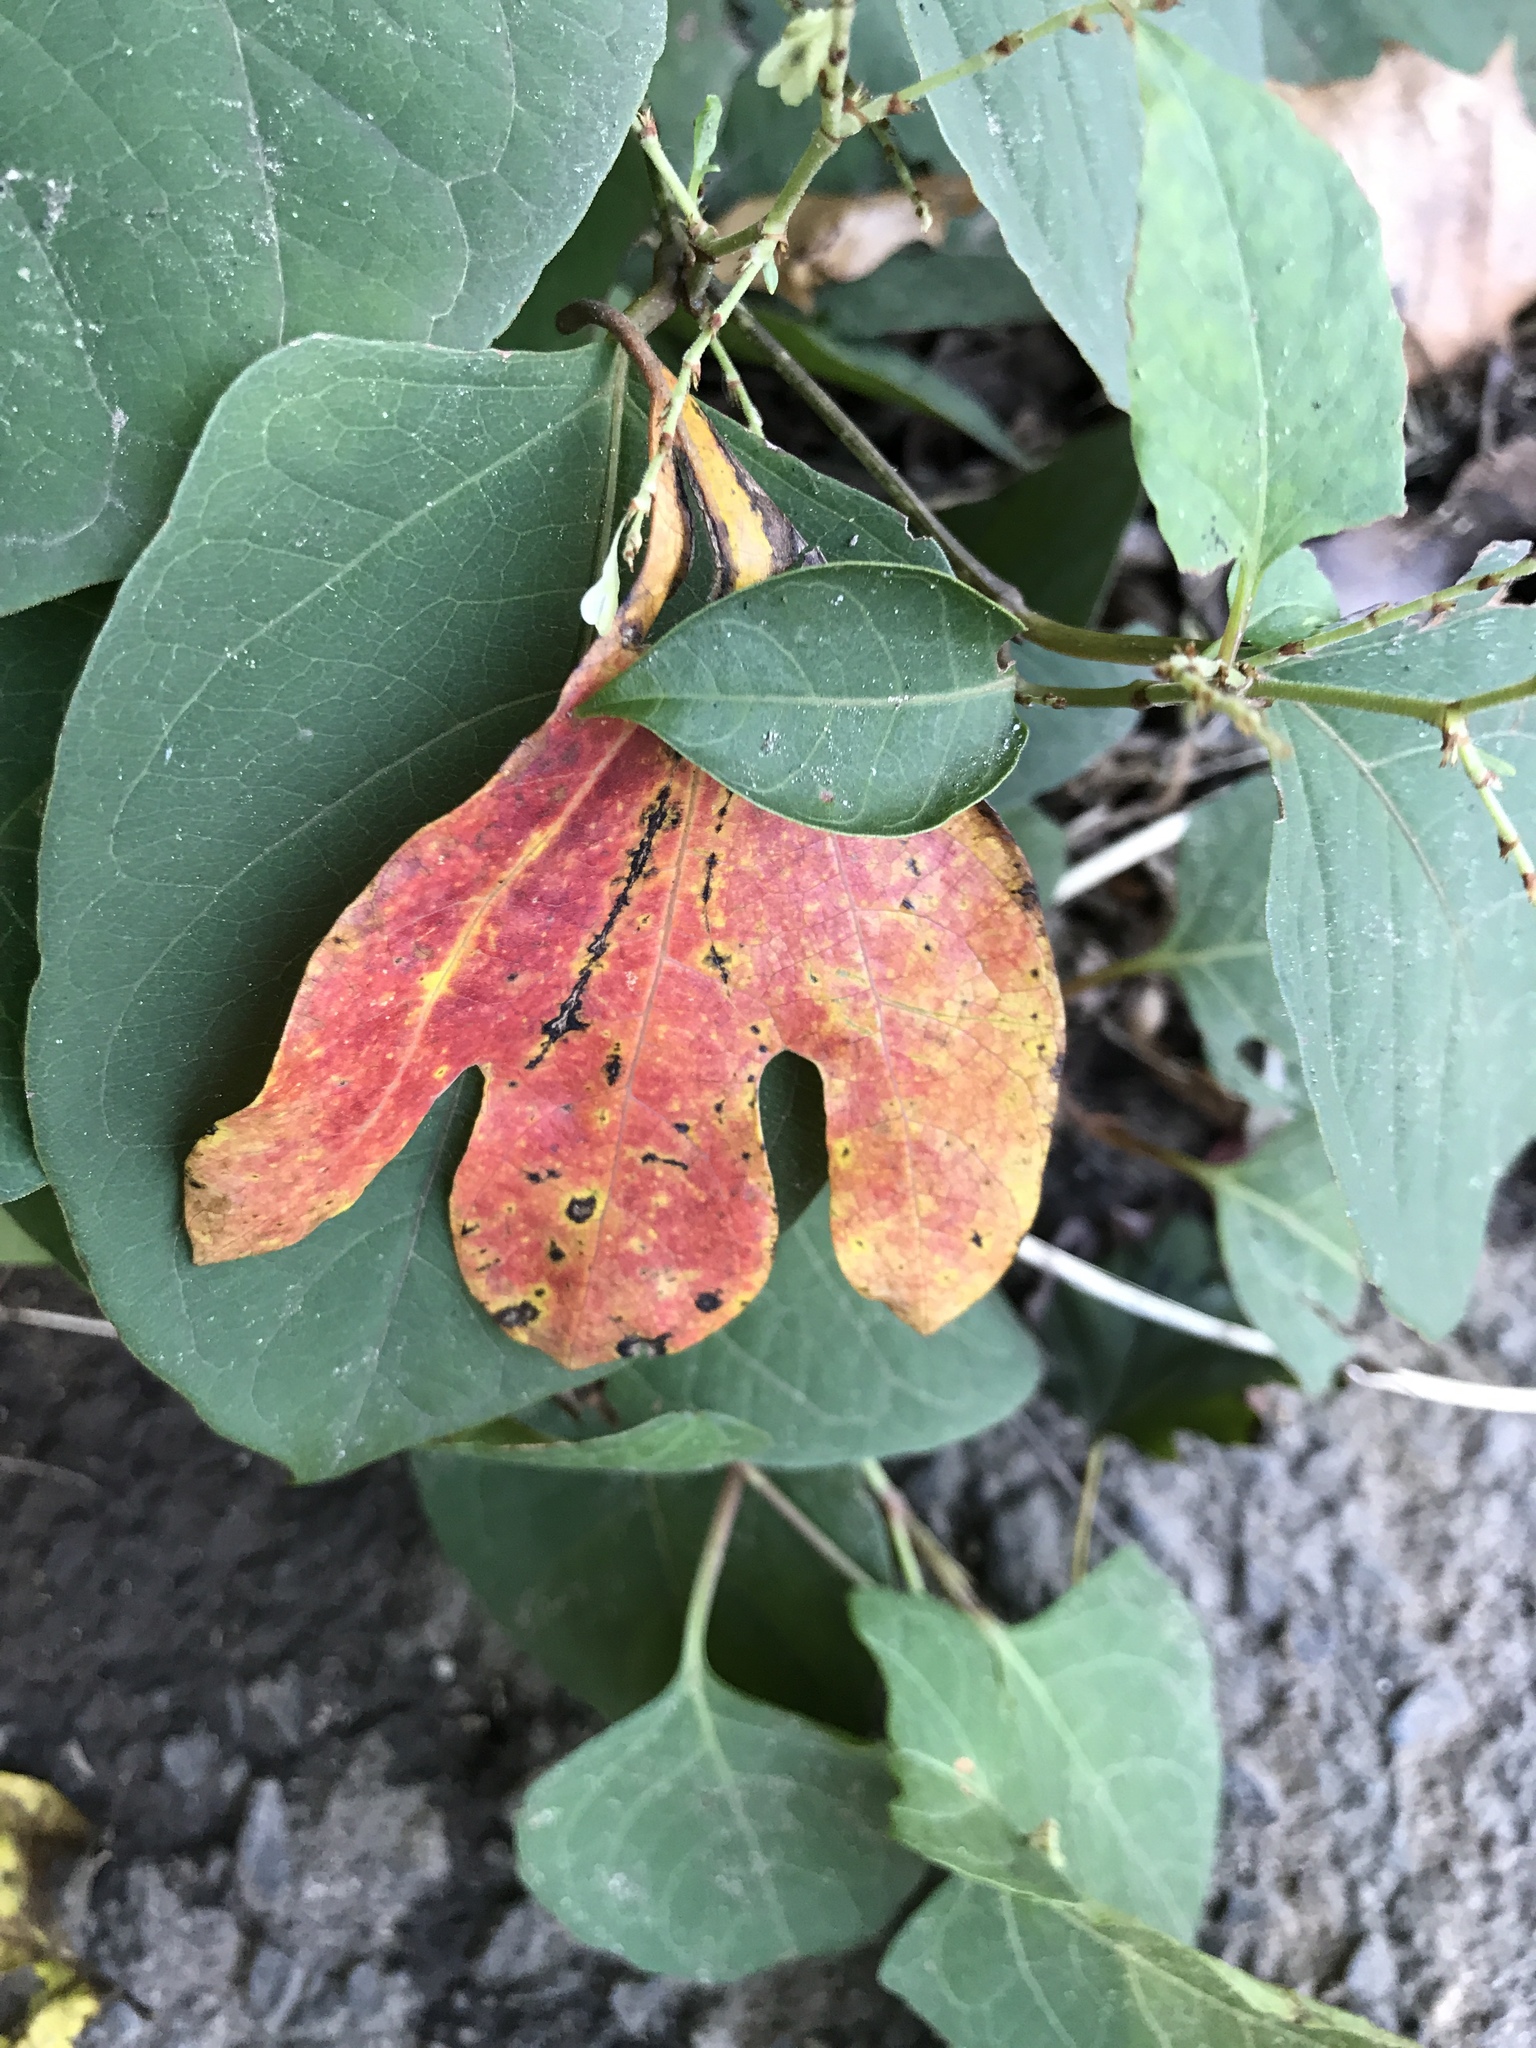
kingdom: Plantae
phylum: Tracheophyta
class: Magnoliopsida
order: Laurales
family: Lauraceae
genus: Sassafras
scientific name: Sassafras albidum
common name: Sassafras
